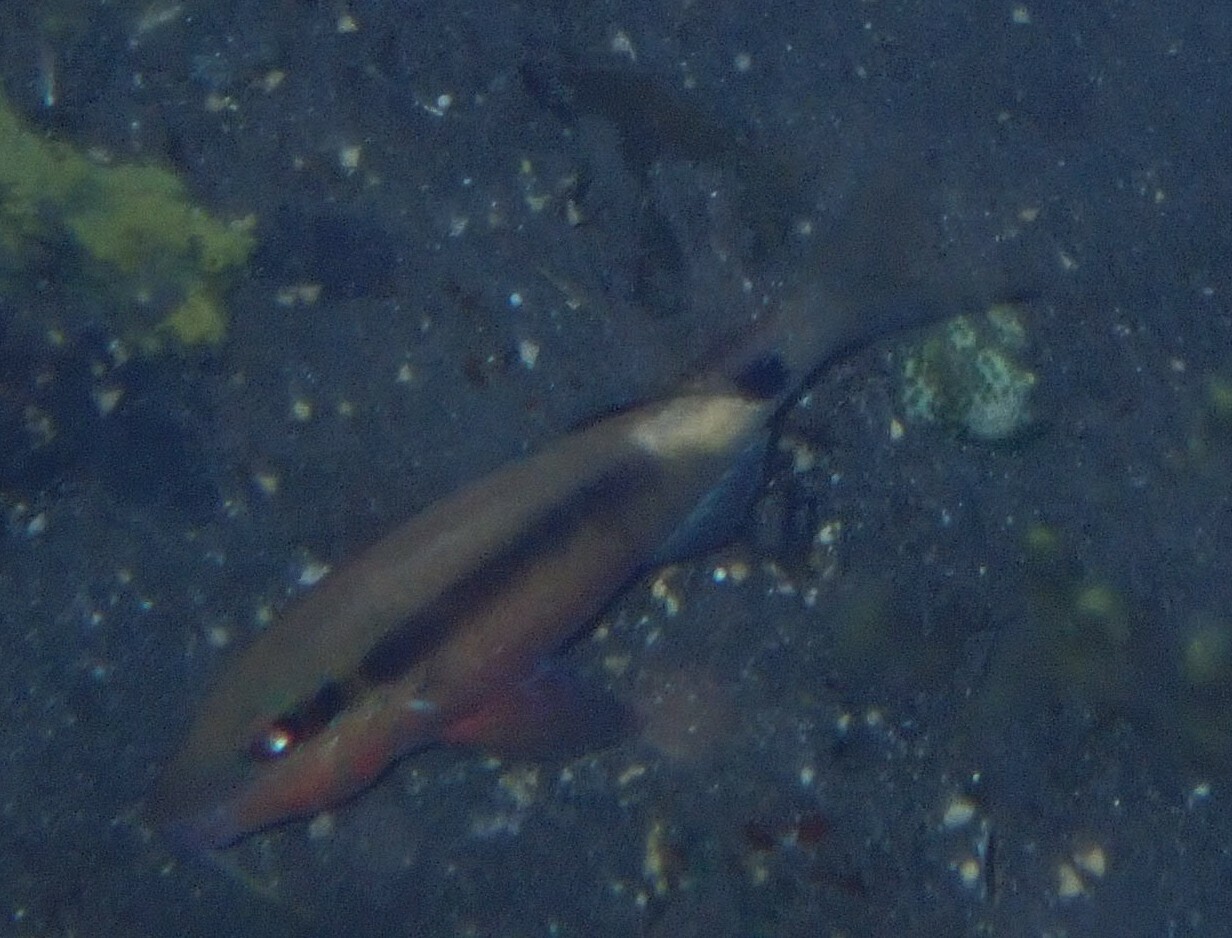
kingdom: Animalia
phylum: Chordata
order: Perciformes
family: Mullidae
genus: Parupeneus
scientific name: Parupeneus macronemus
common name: Long-barbel goatfish
